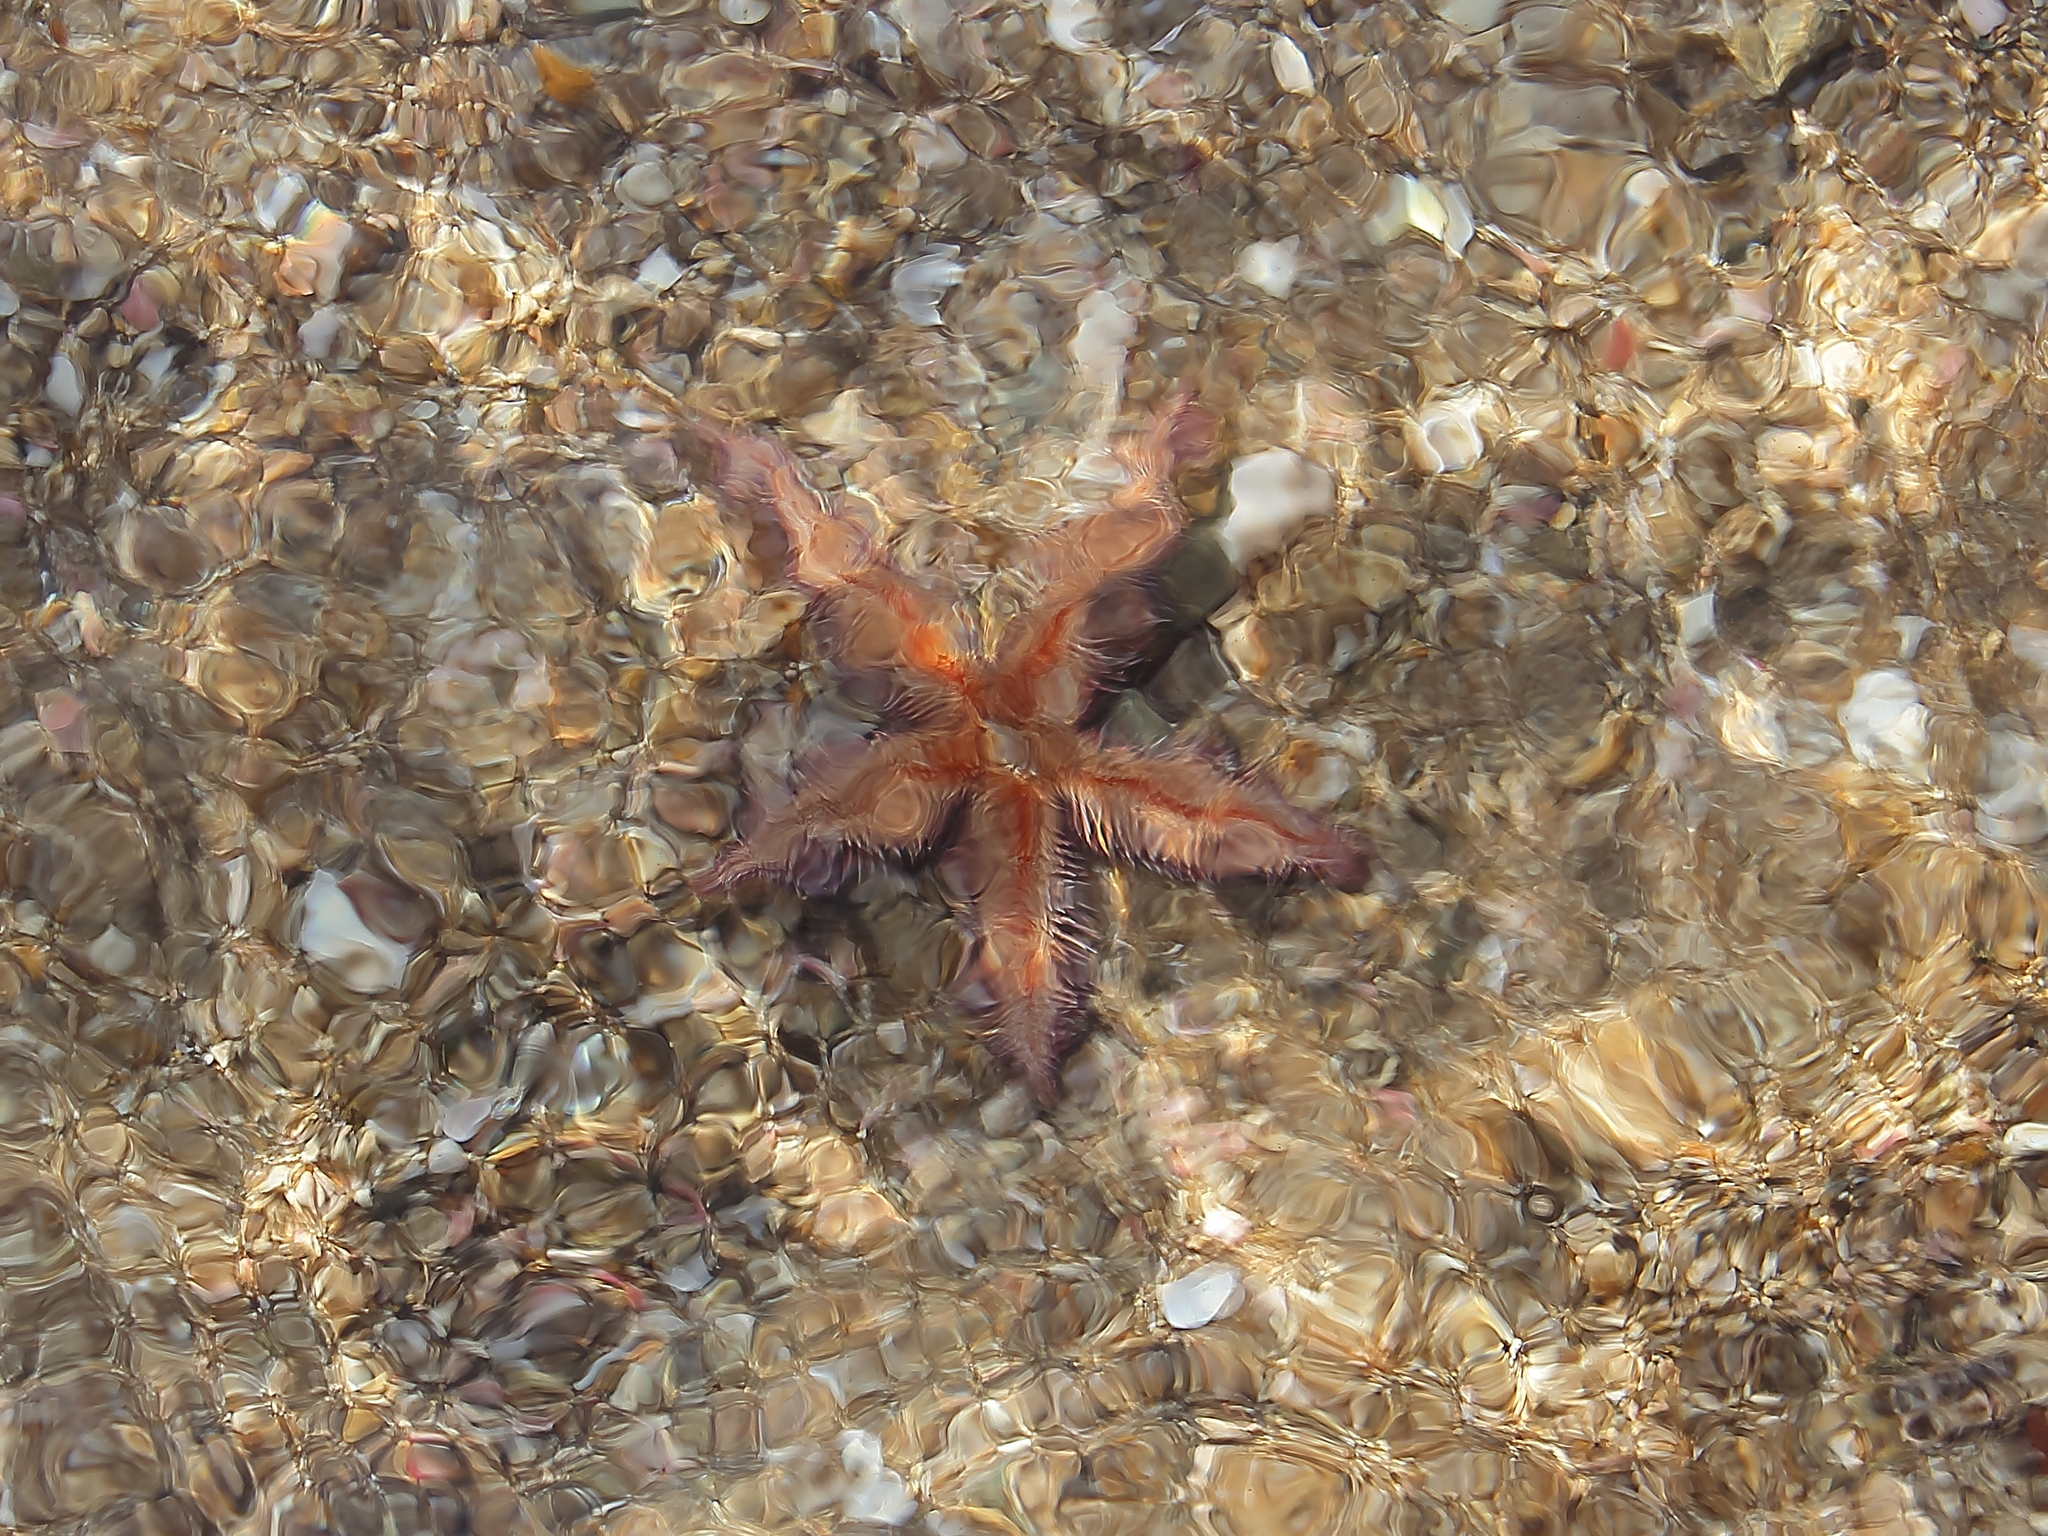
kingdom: Animalia
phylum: Echinodermata
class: Asteroidea
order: Paxillosida
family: Astropectinidae
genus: Astropecten
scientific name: Astropecten polyacanthus
